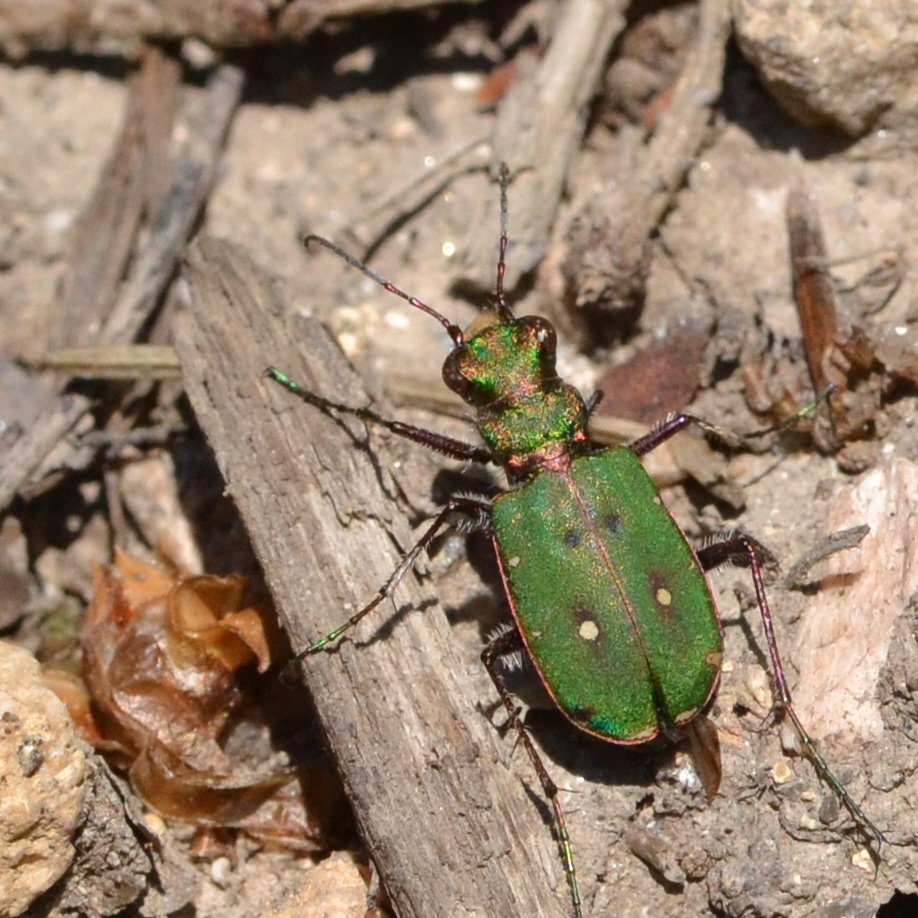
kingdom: Animalia
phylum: Arthropoda
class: Insecta
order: Coleoptera
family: Carabidae
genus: Cicindela
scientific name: Cicindela campestris
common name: Common tiger beetle
